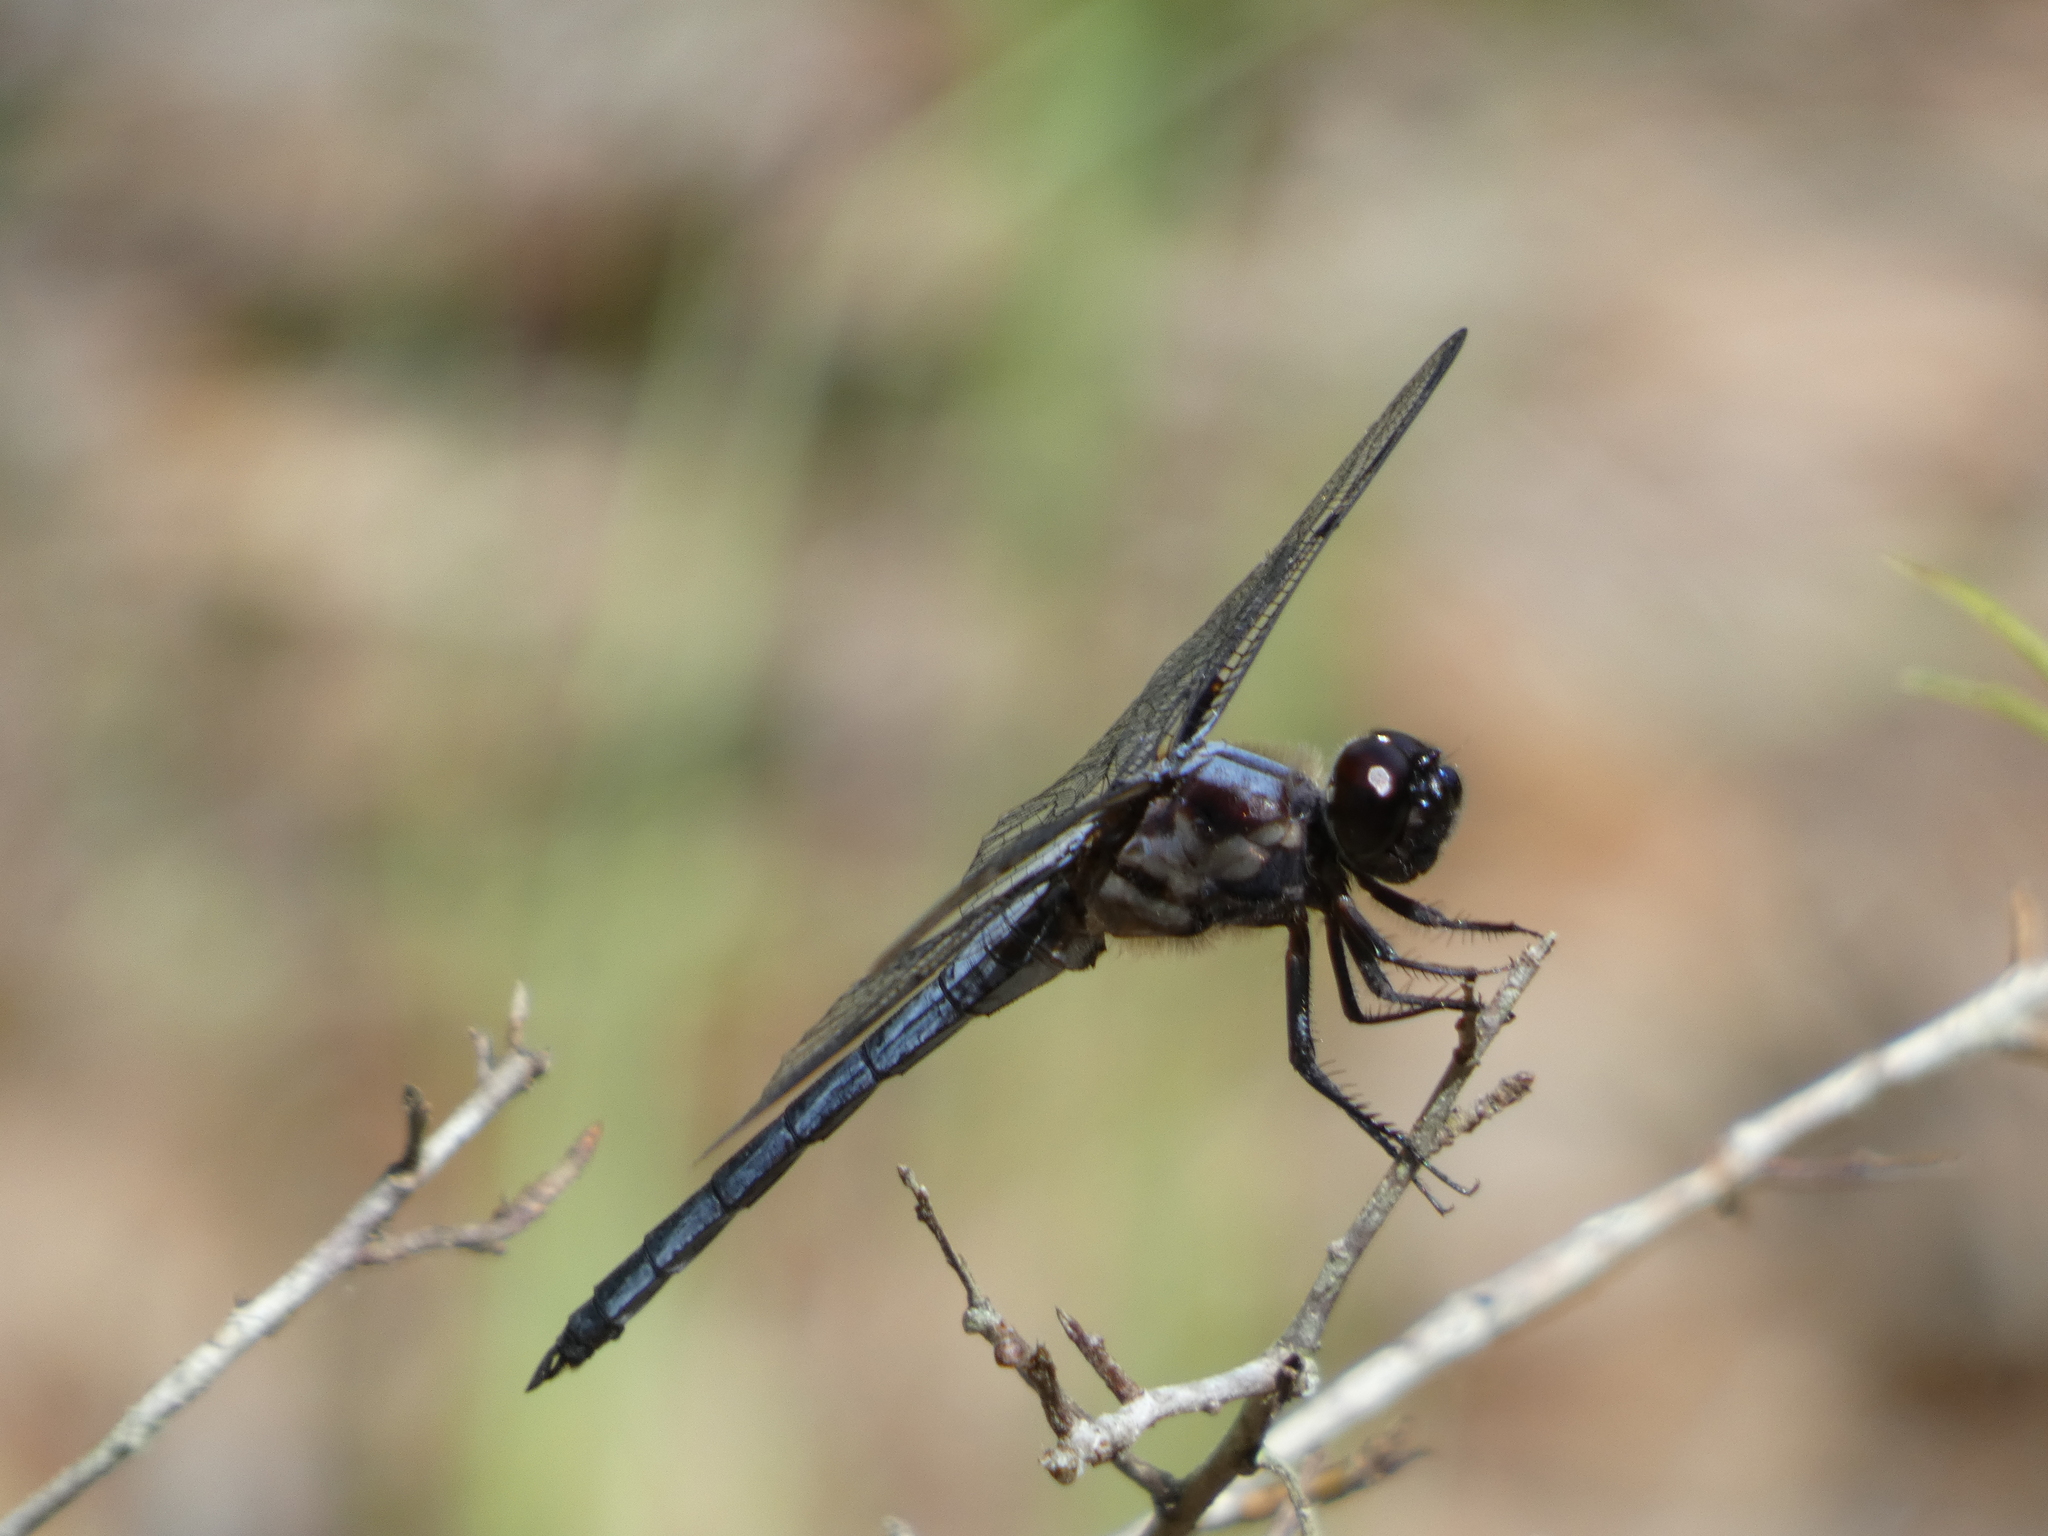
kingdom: Animalia
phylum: Arthropoda
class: Insecta
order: Odonata
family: Libellulidae
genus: Libellula
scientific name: Libellula axilena
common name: Bar-winged skimmer
